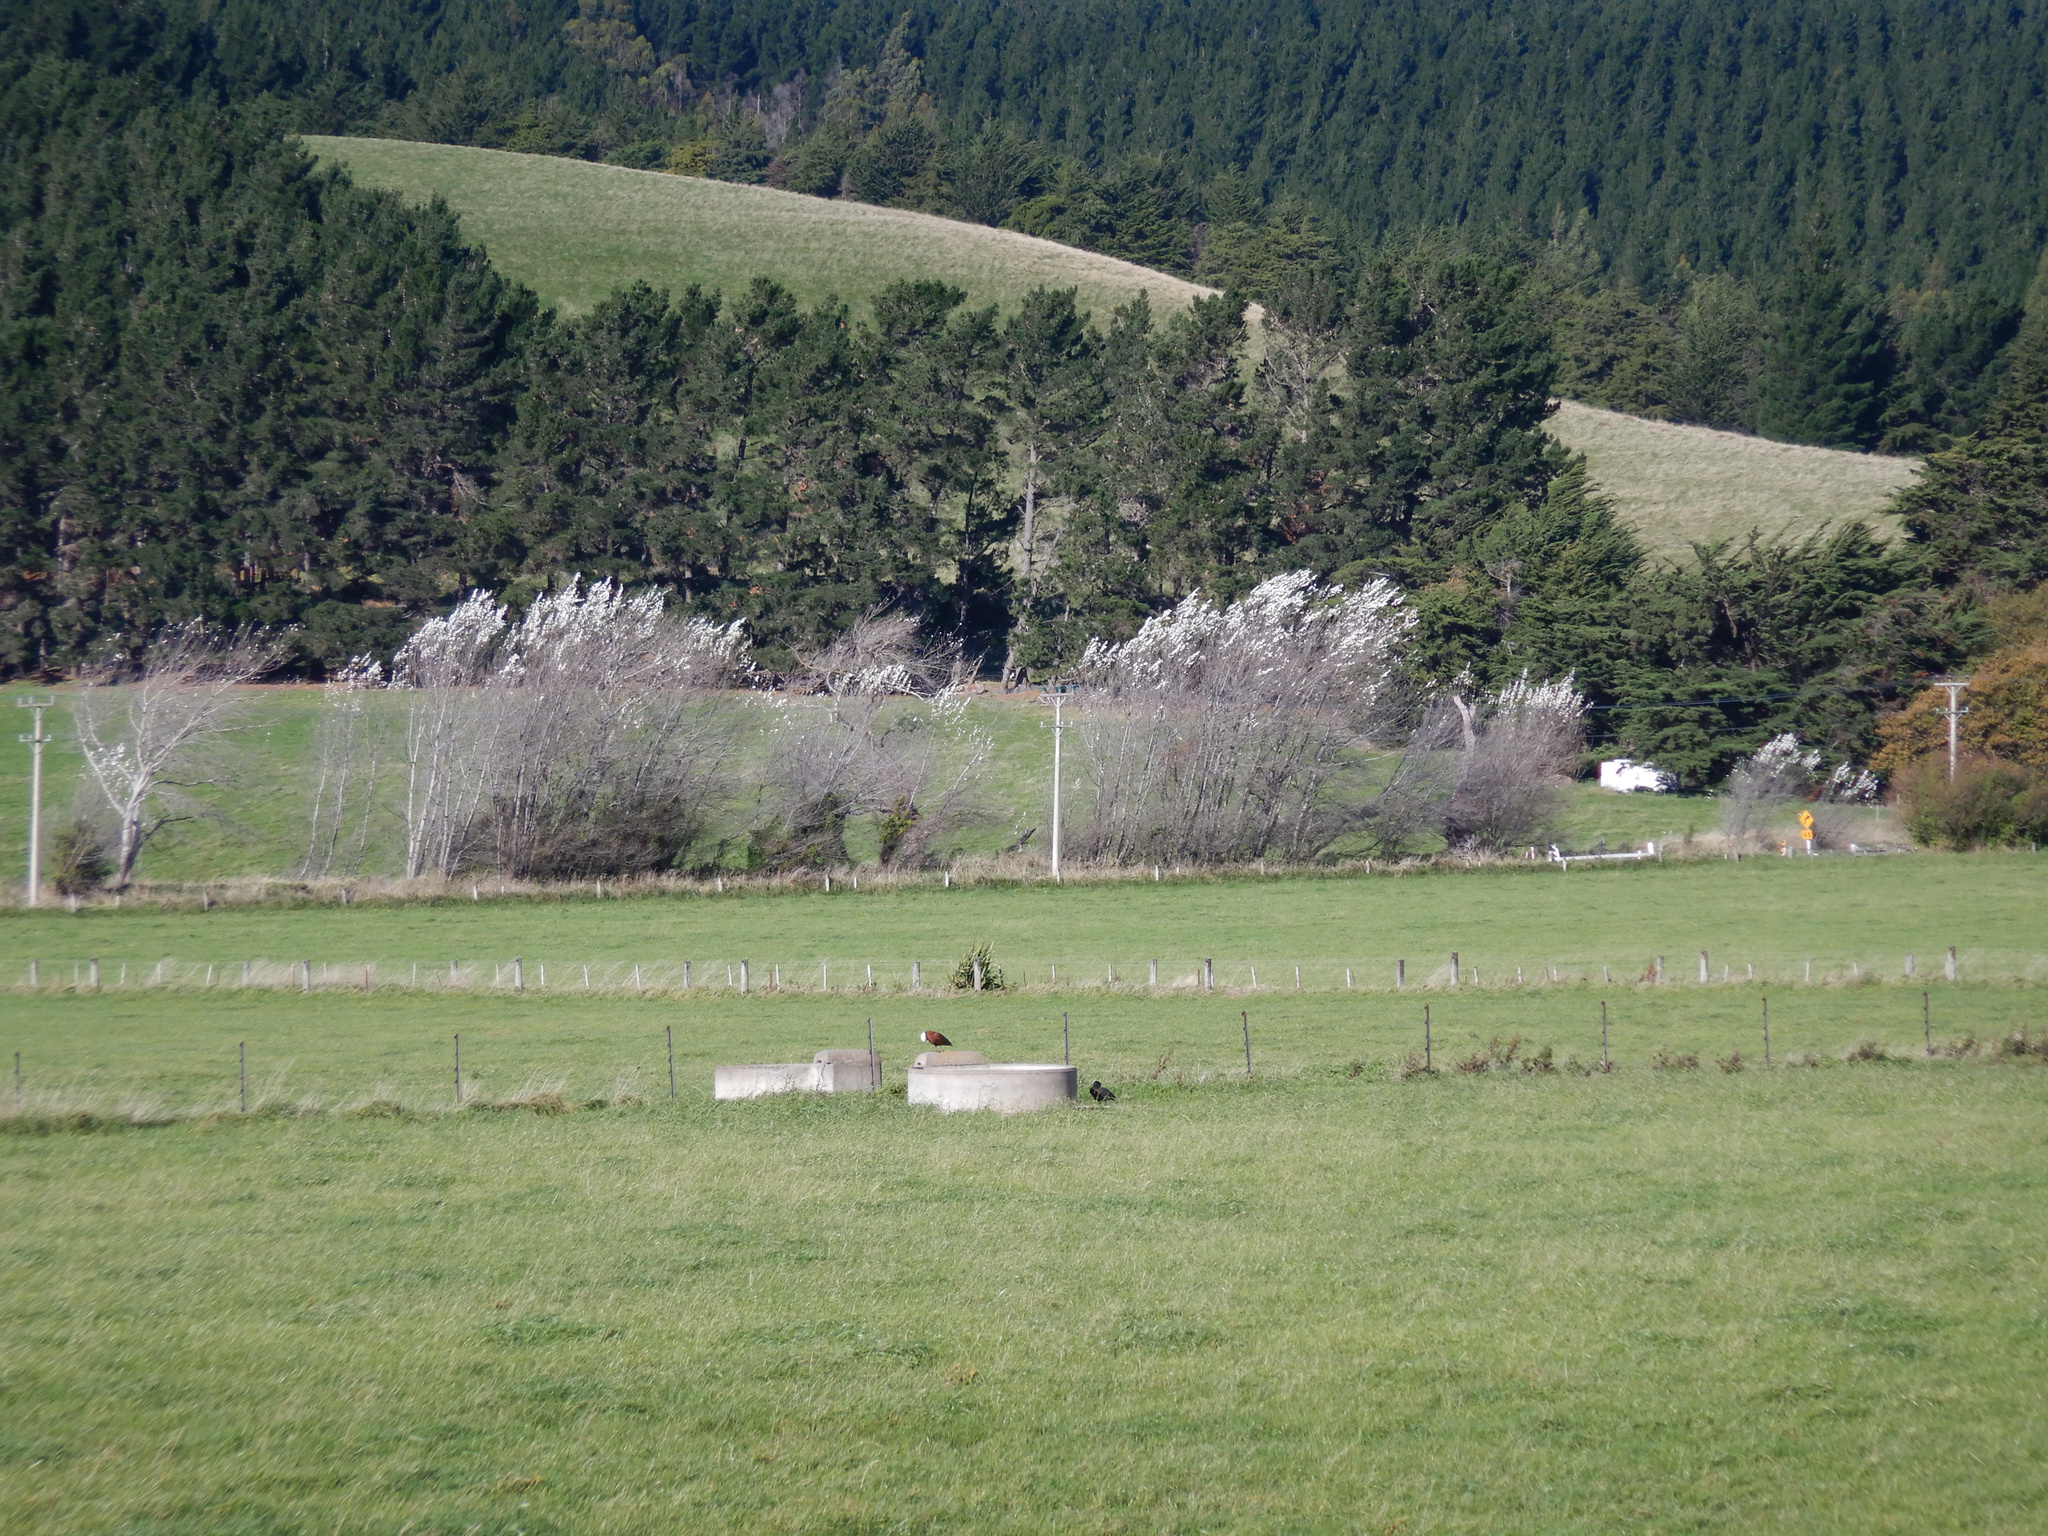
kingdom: Animalia
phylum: Chordata
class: Aves
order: Anseriformes
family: Anatidae
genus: Tadorna
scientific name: Tadorna variegata
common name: Paradise shelduck
